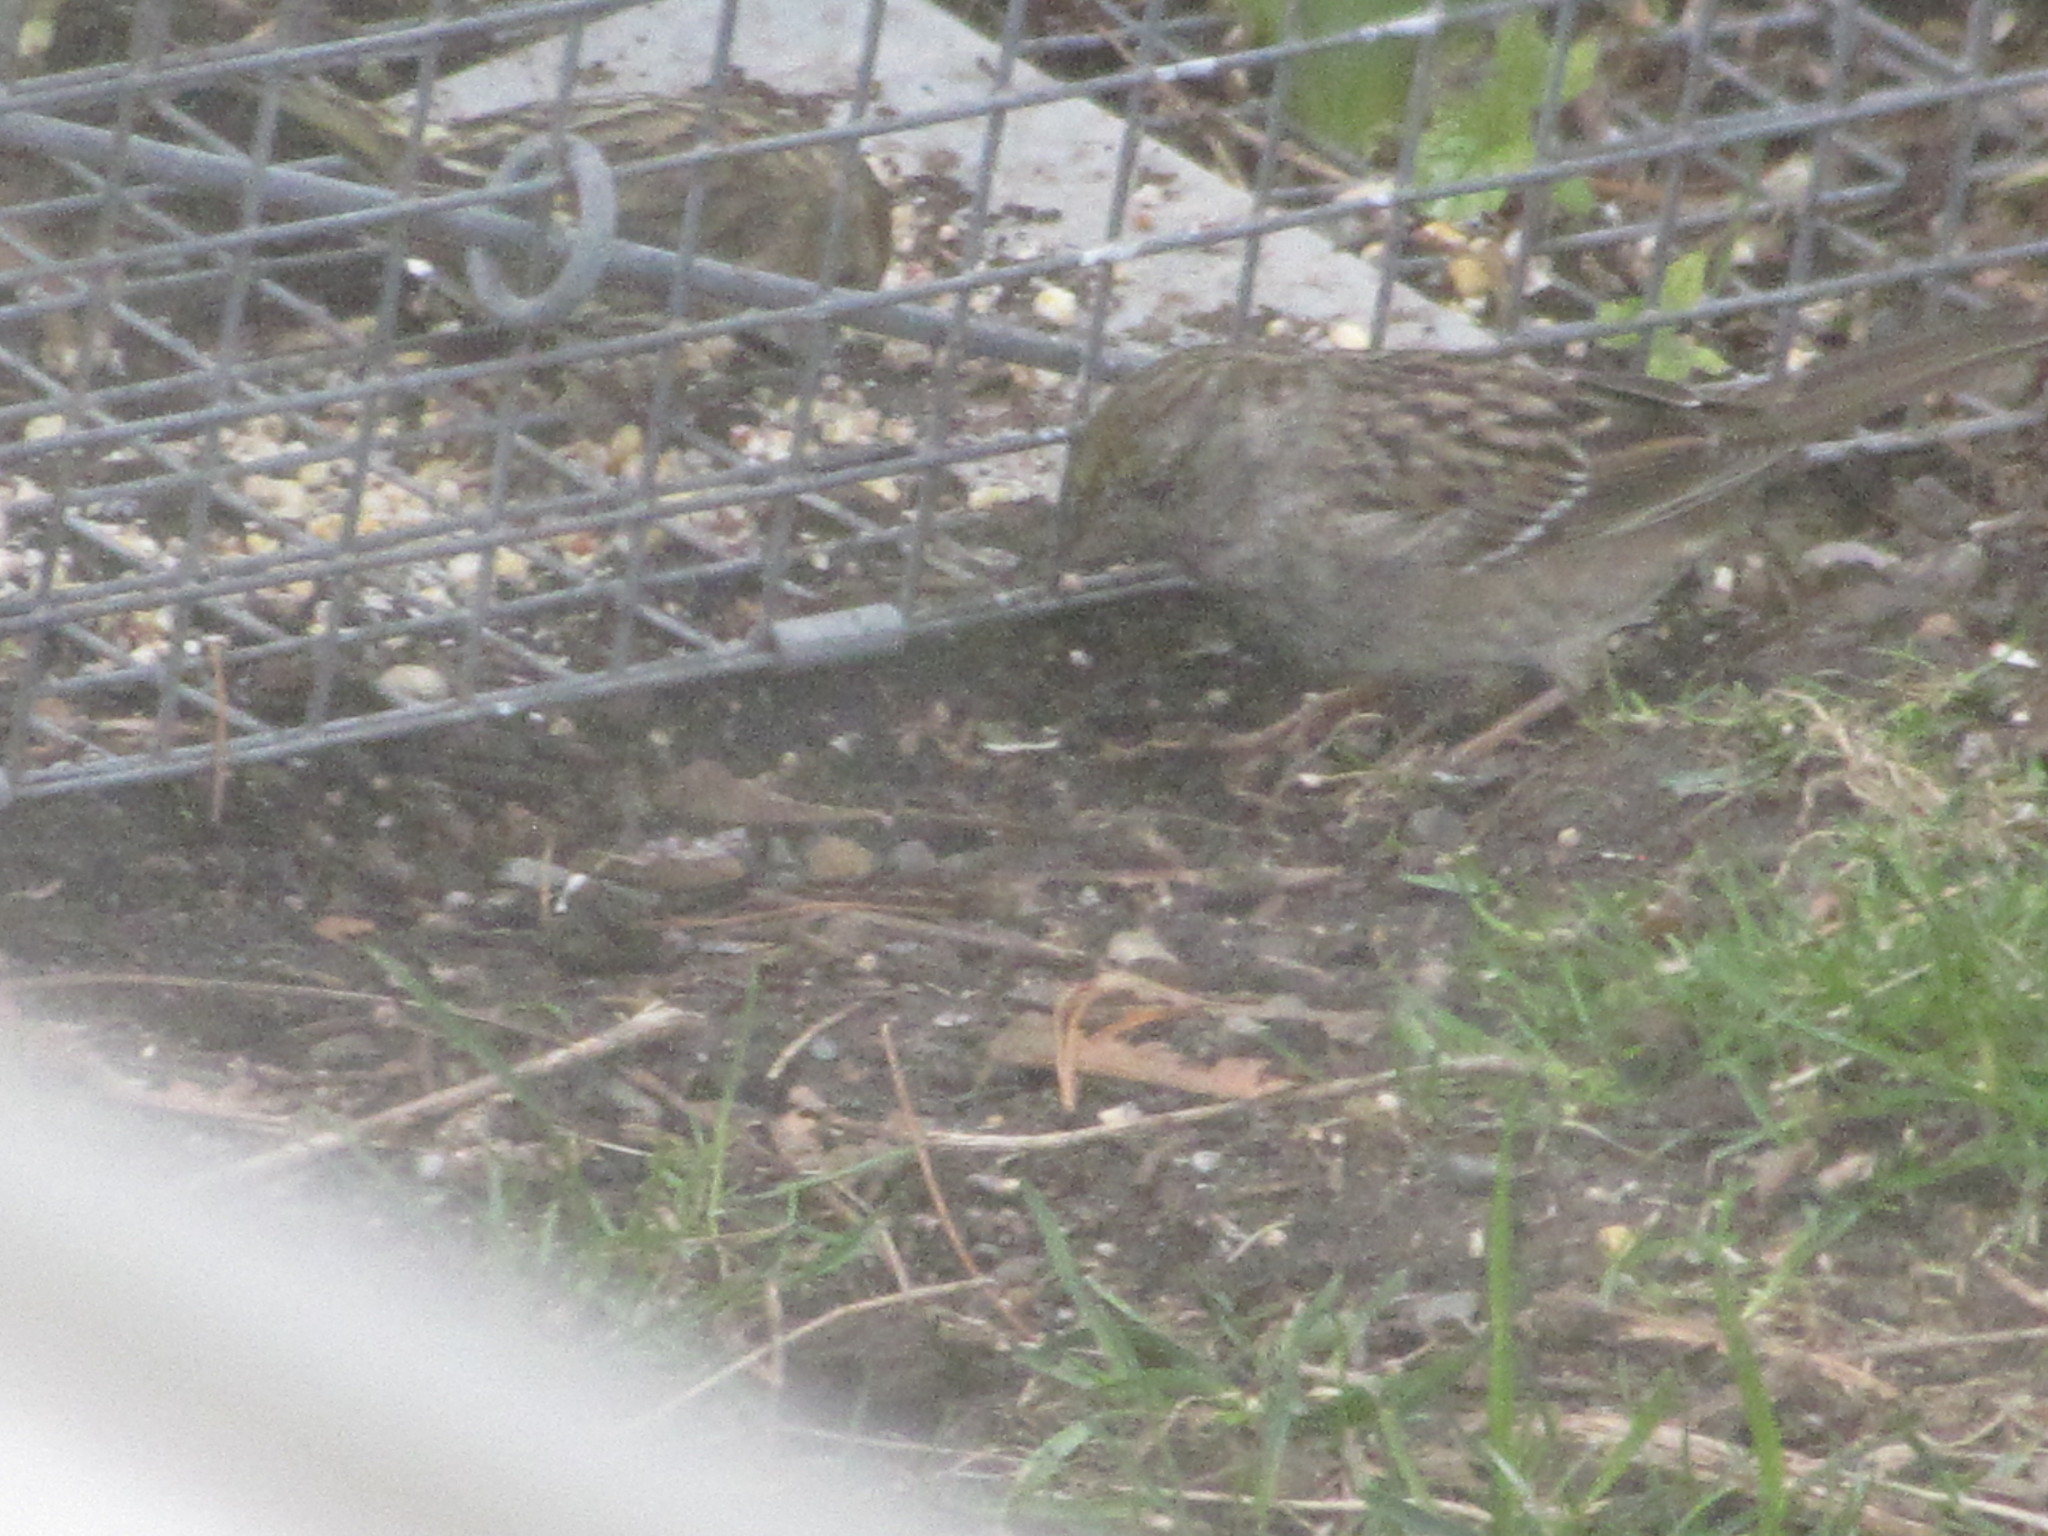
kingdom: Animalia
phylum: Chordata
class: Aves
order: Passeriformes
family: Passerellidae
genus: Zonotrichia
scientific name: Zonotrichia atricapilla
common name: Golden-crowned sparrow
